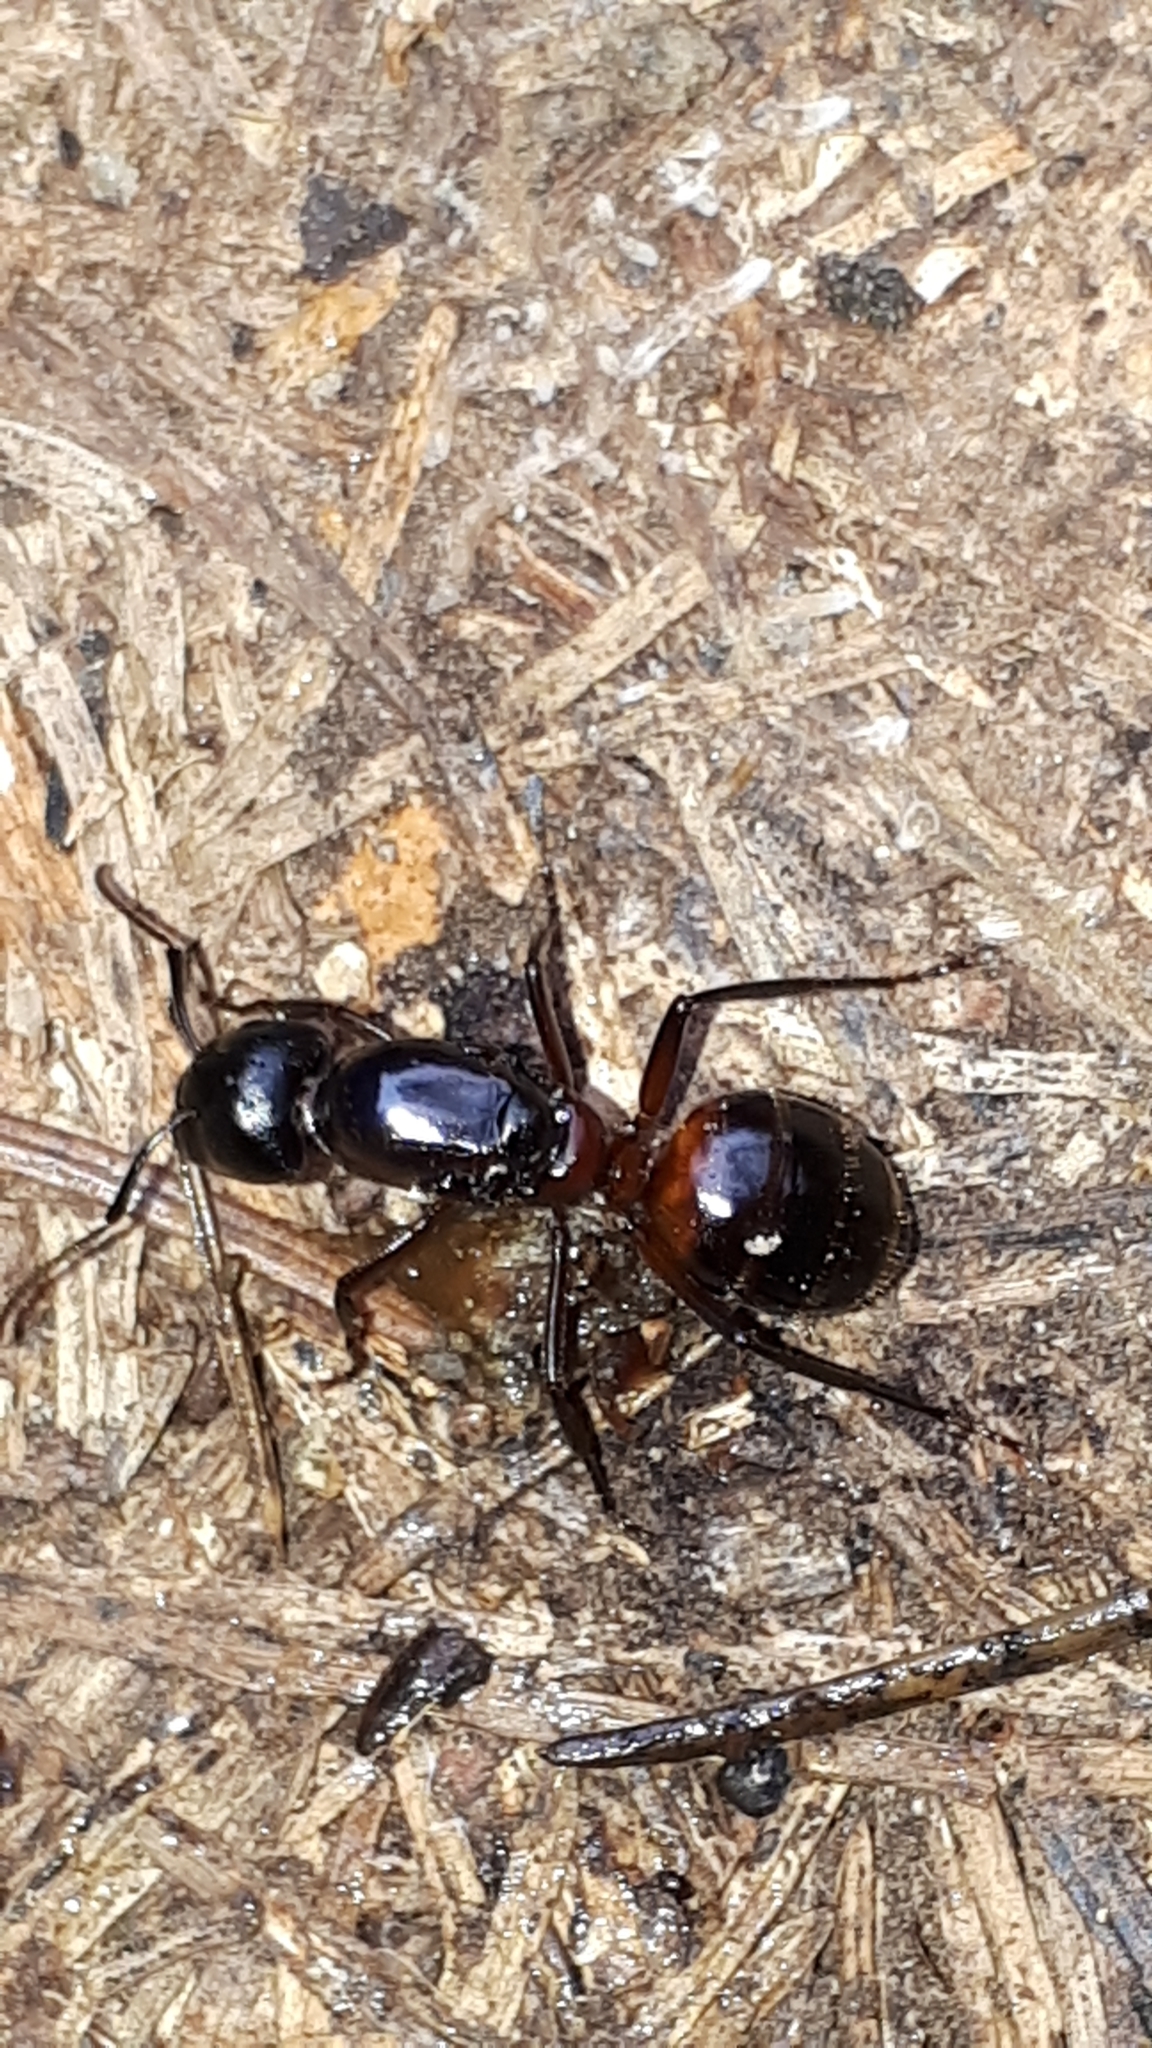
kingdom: Animalia
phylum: Arthropoda
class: Insecta
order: Hymenoptera
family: Formicidae
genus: Camponotus
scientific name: Camponotus ligniperdus
